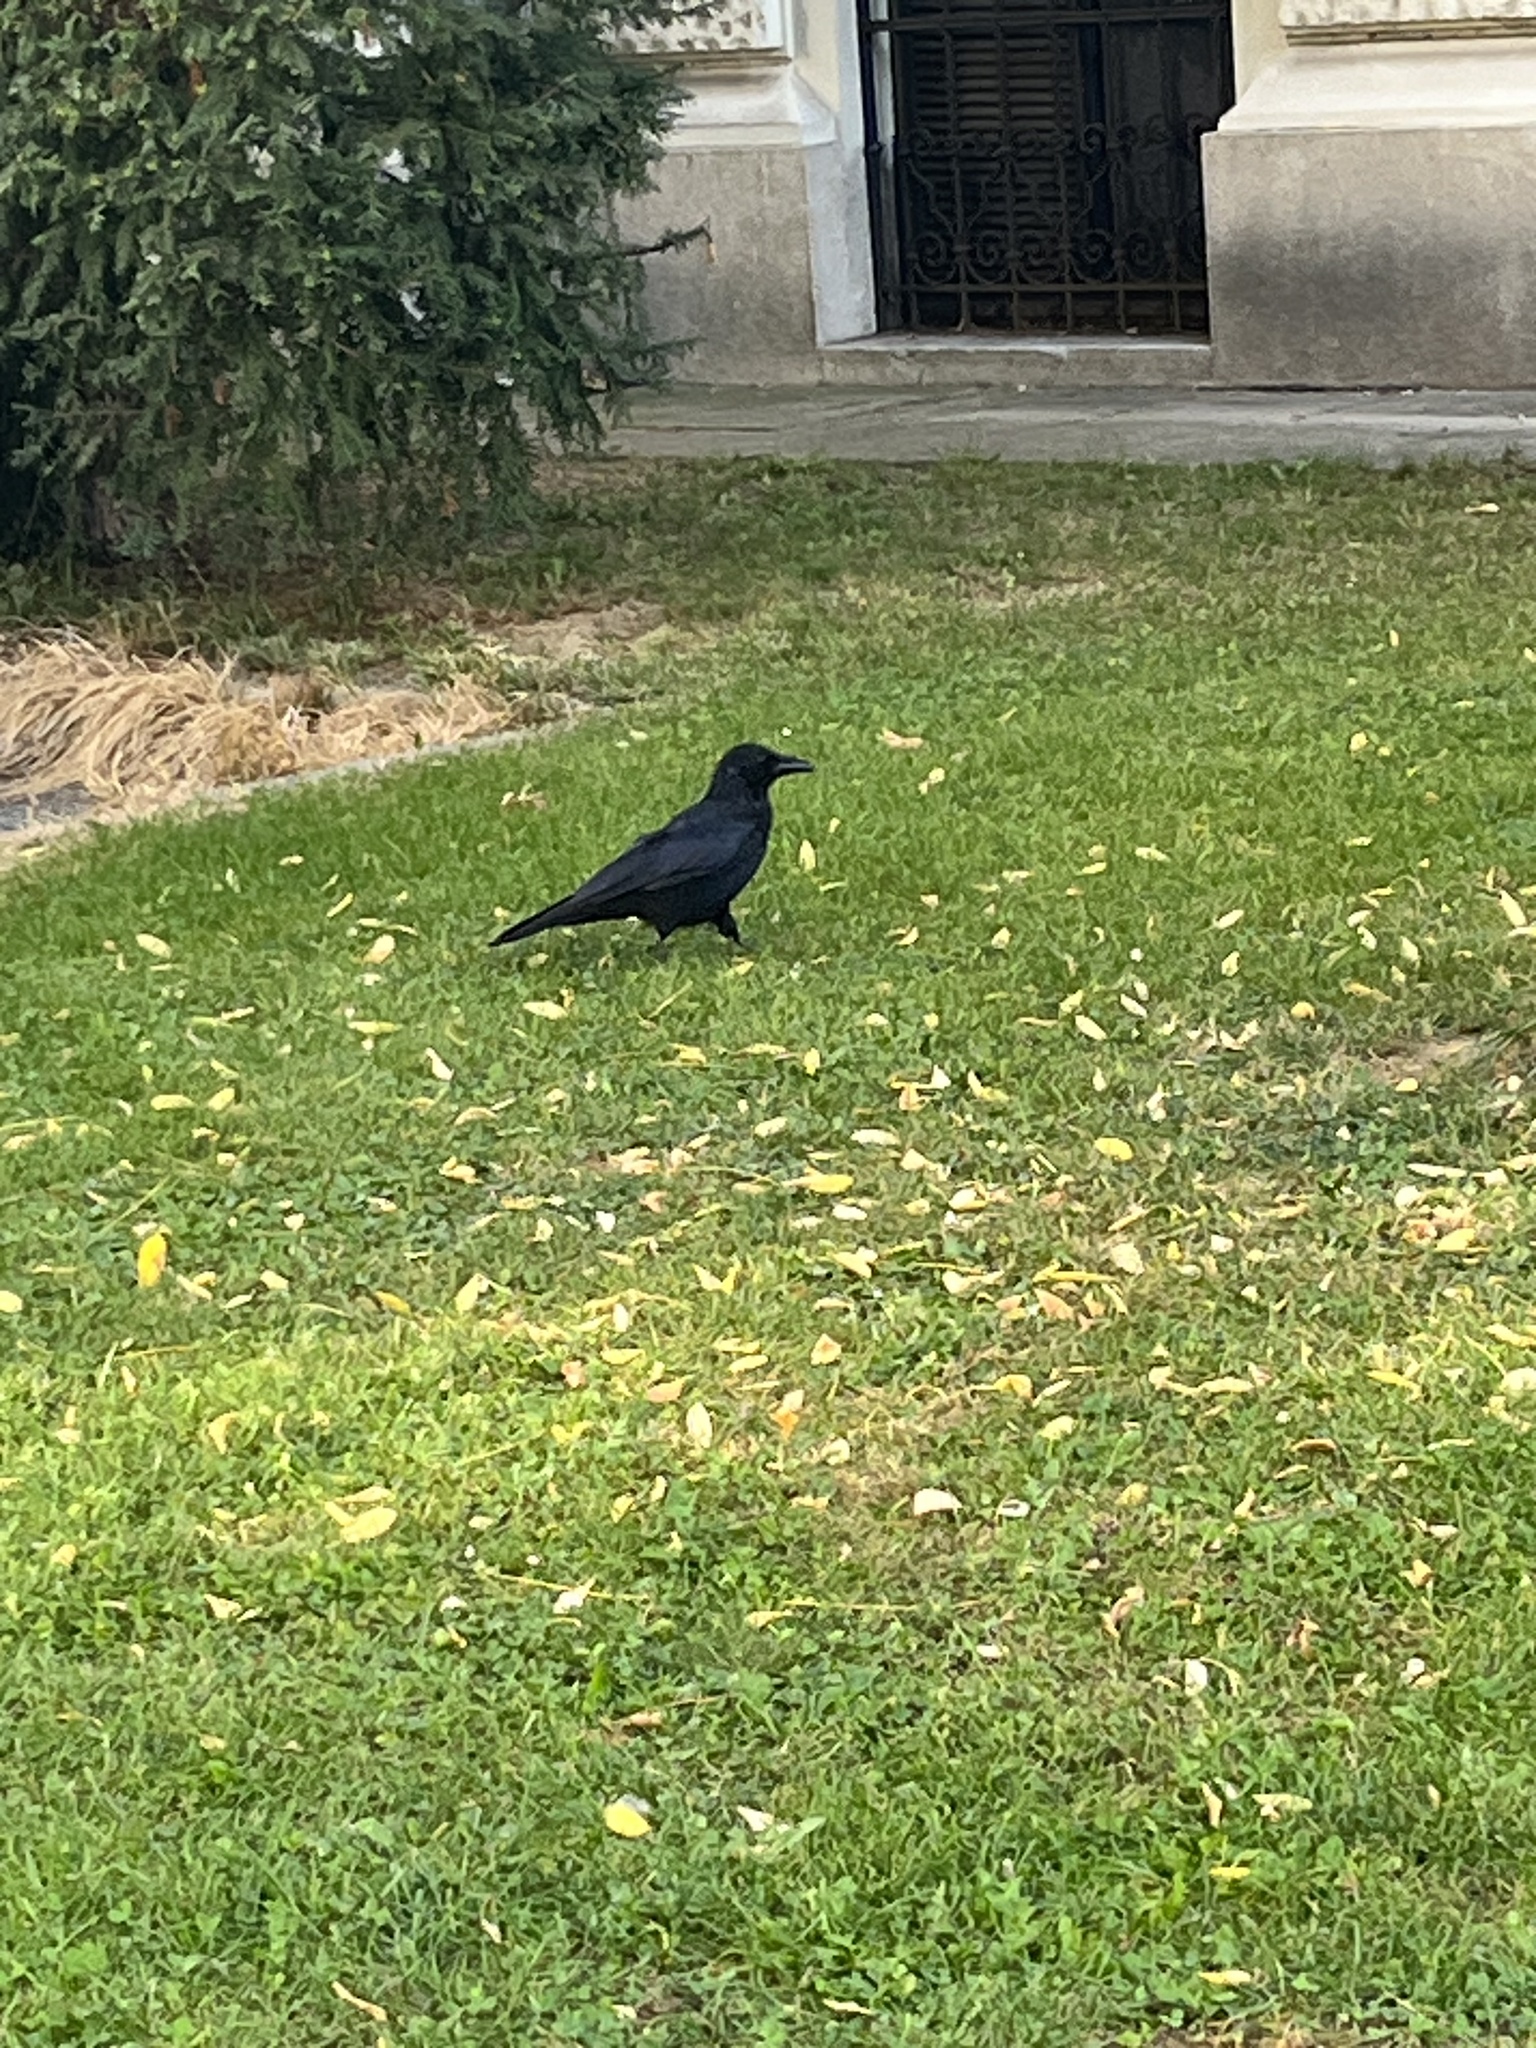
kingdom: Animalia
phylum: Chordata
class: Aves
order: Passeriformes
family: Corvidae
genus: Corvus
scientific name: Corvus corone
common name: Carrion crow
